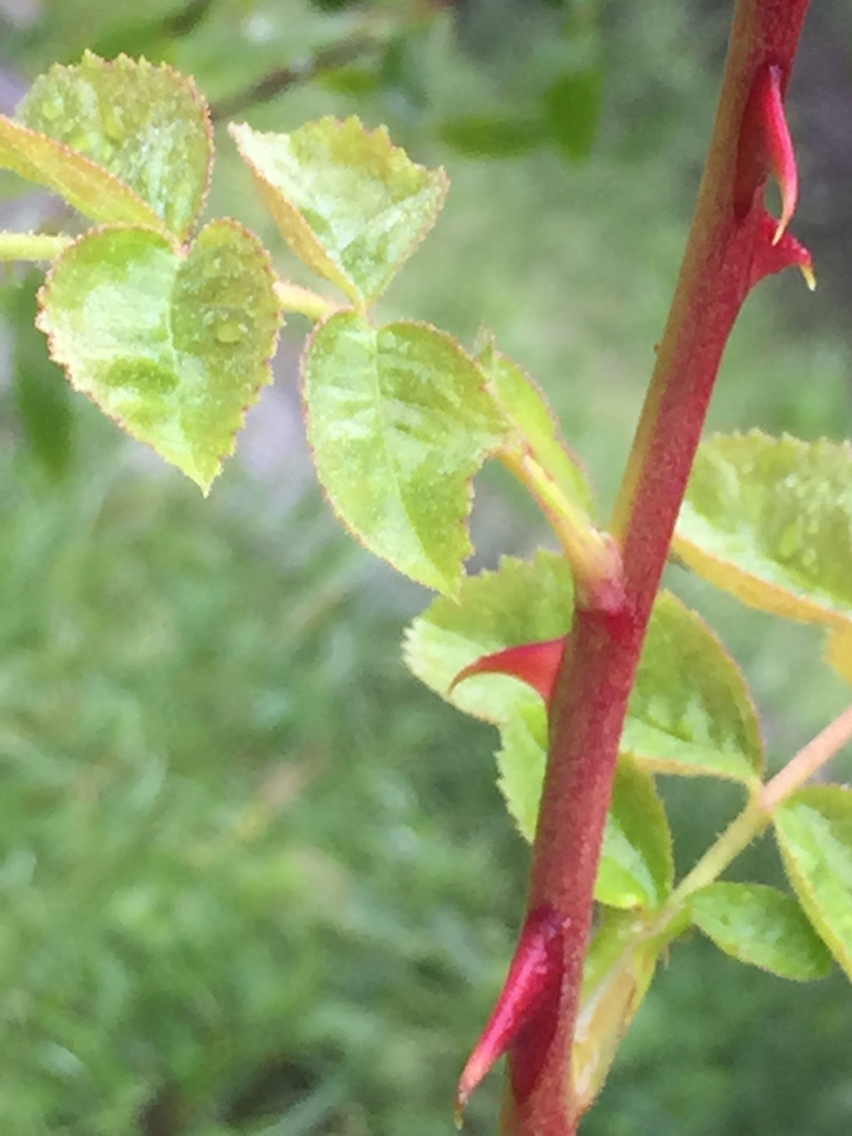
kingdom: Plantae
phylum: Tracheophyta
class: Magnoliopsida
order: Rosales
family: Rosaceae
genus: Rosa
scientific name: Rosa californica
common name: California rose
